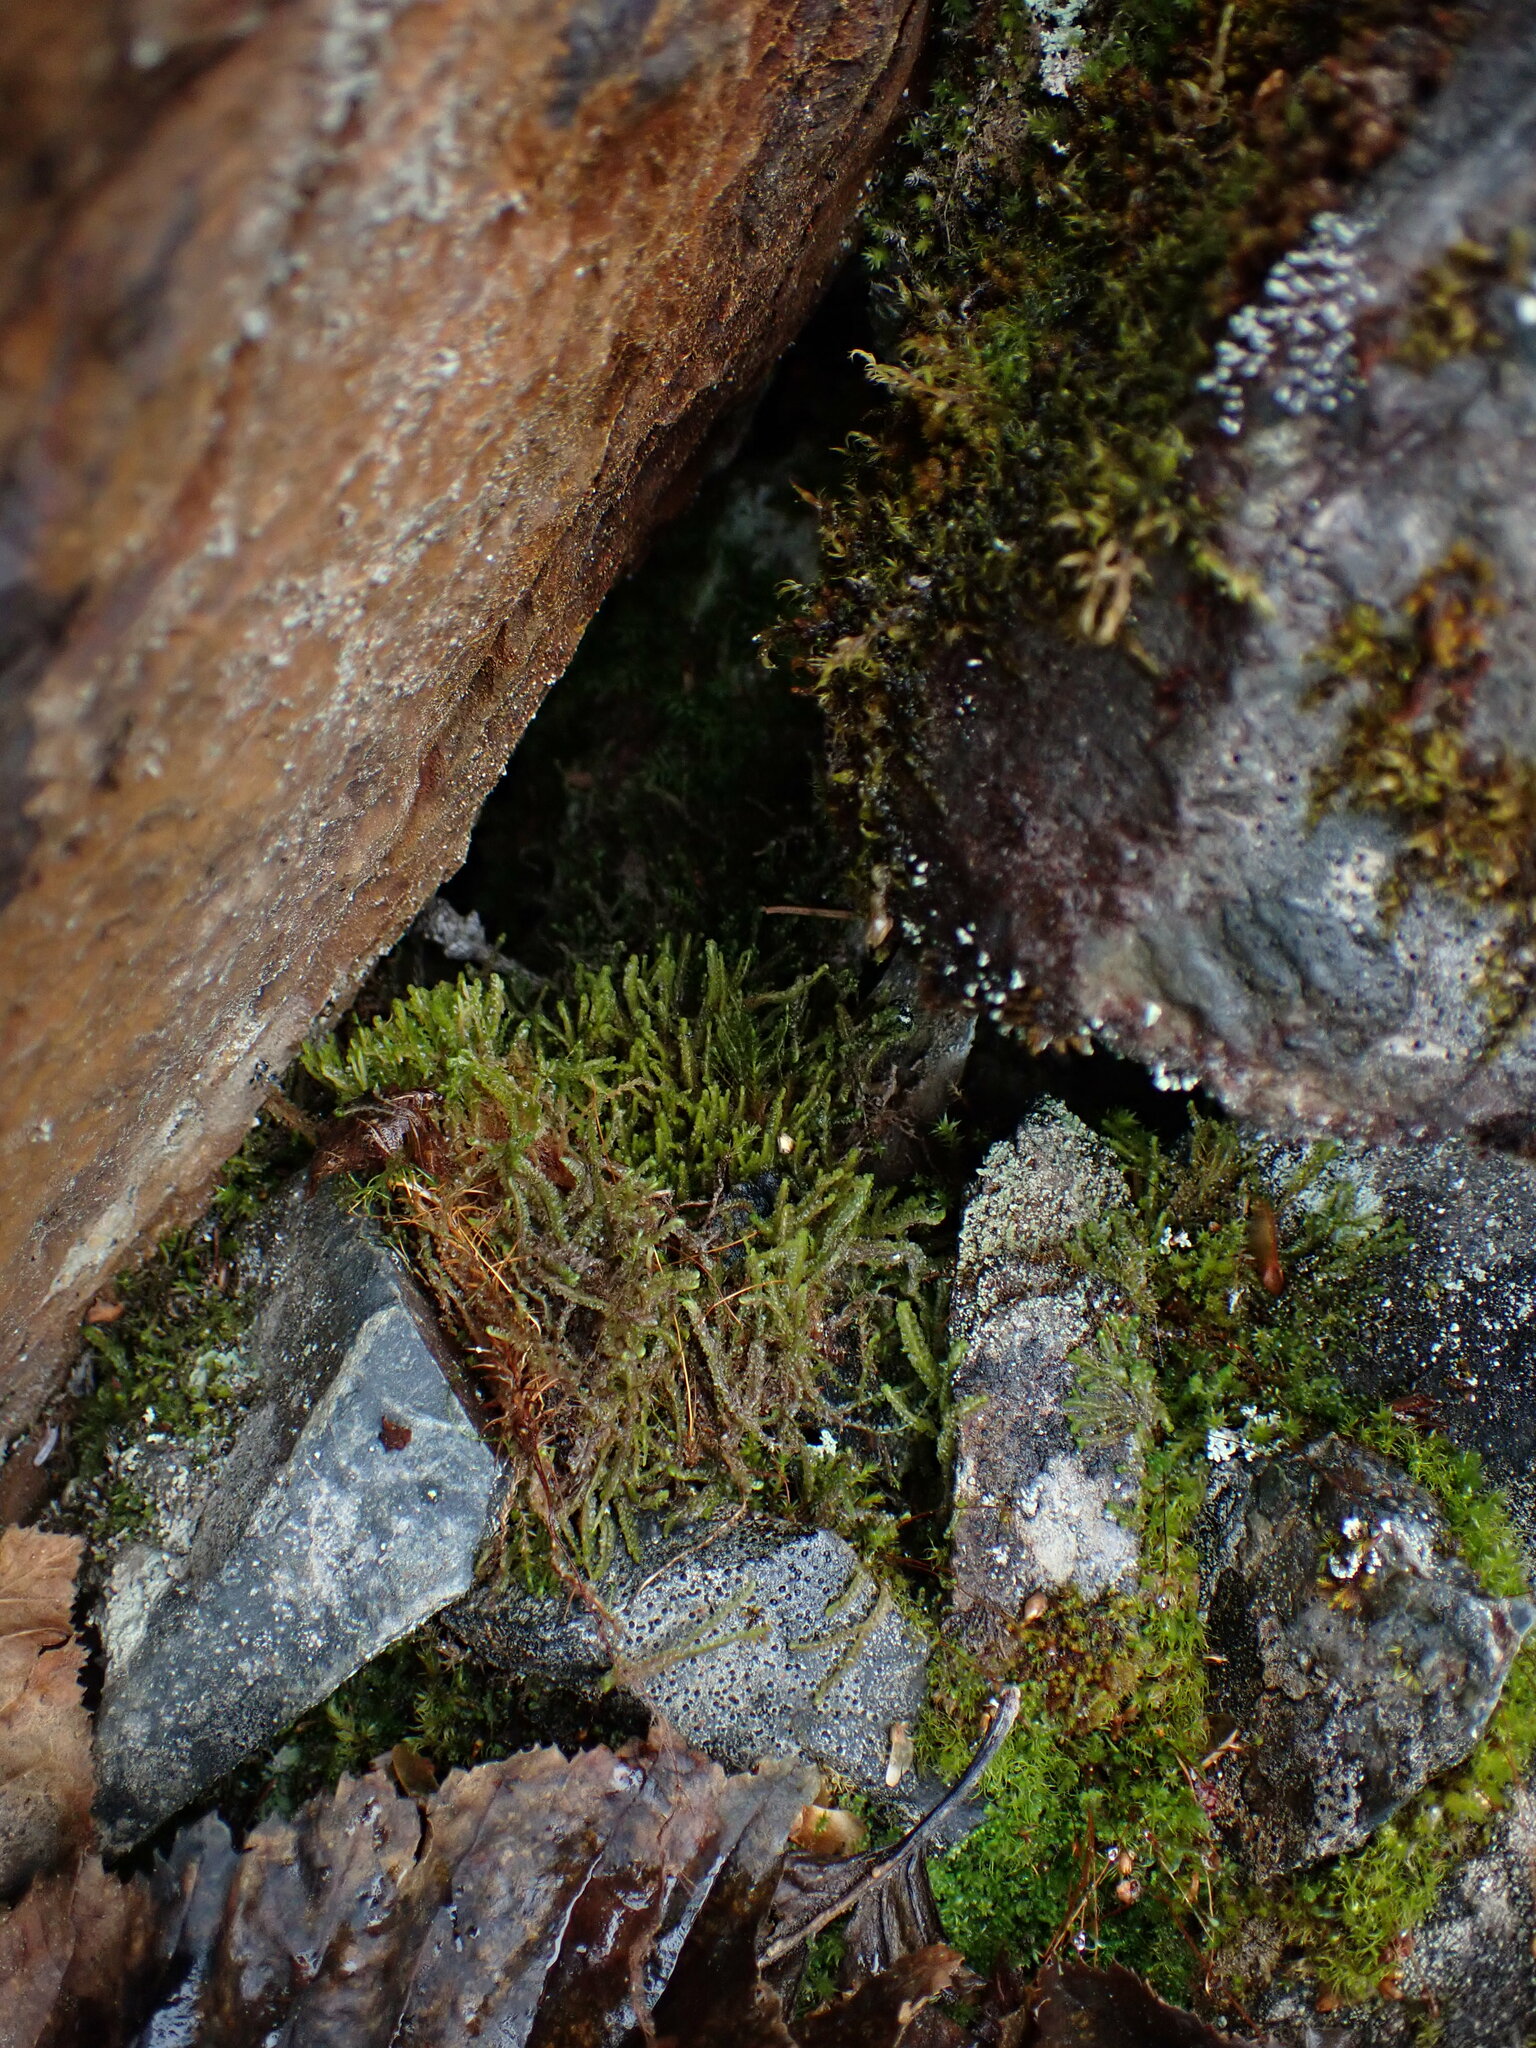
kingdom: Plantae
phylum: Marchantiophyta
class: Jungermanniopsida
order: Jungermanniales
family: Anastrophyllaceae
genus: Tetralophozia
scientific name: Tetralophozia setiformis
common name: Monster pawwort
